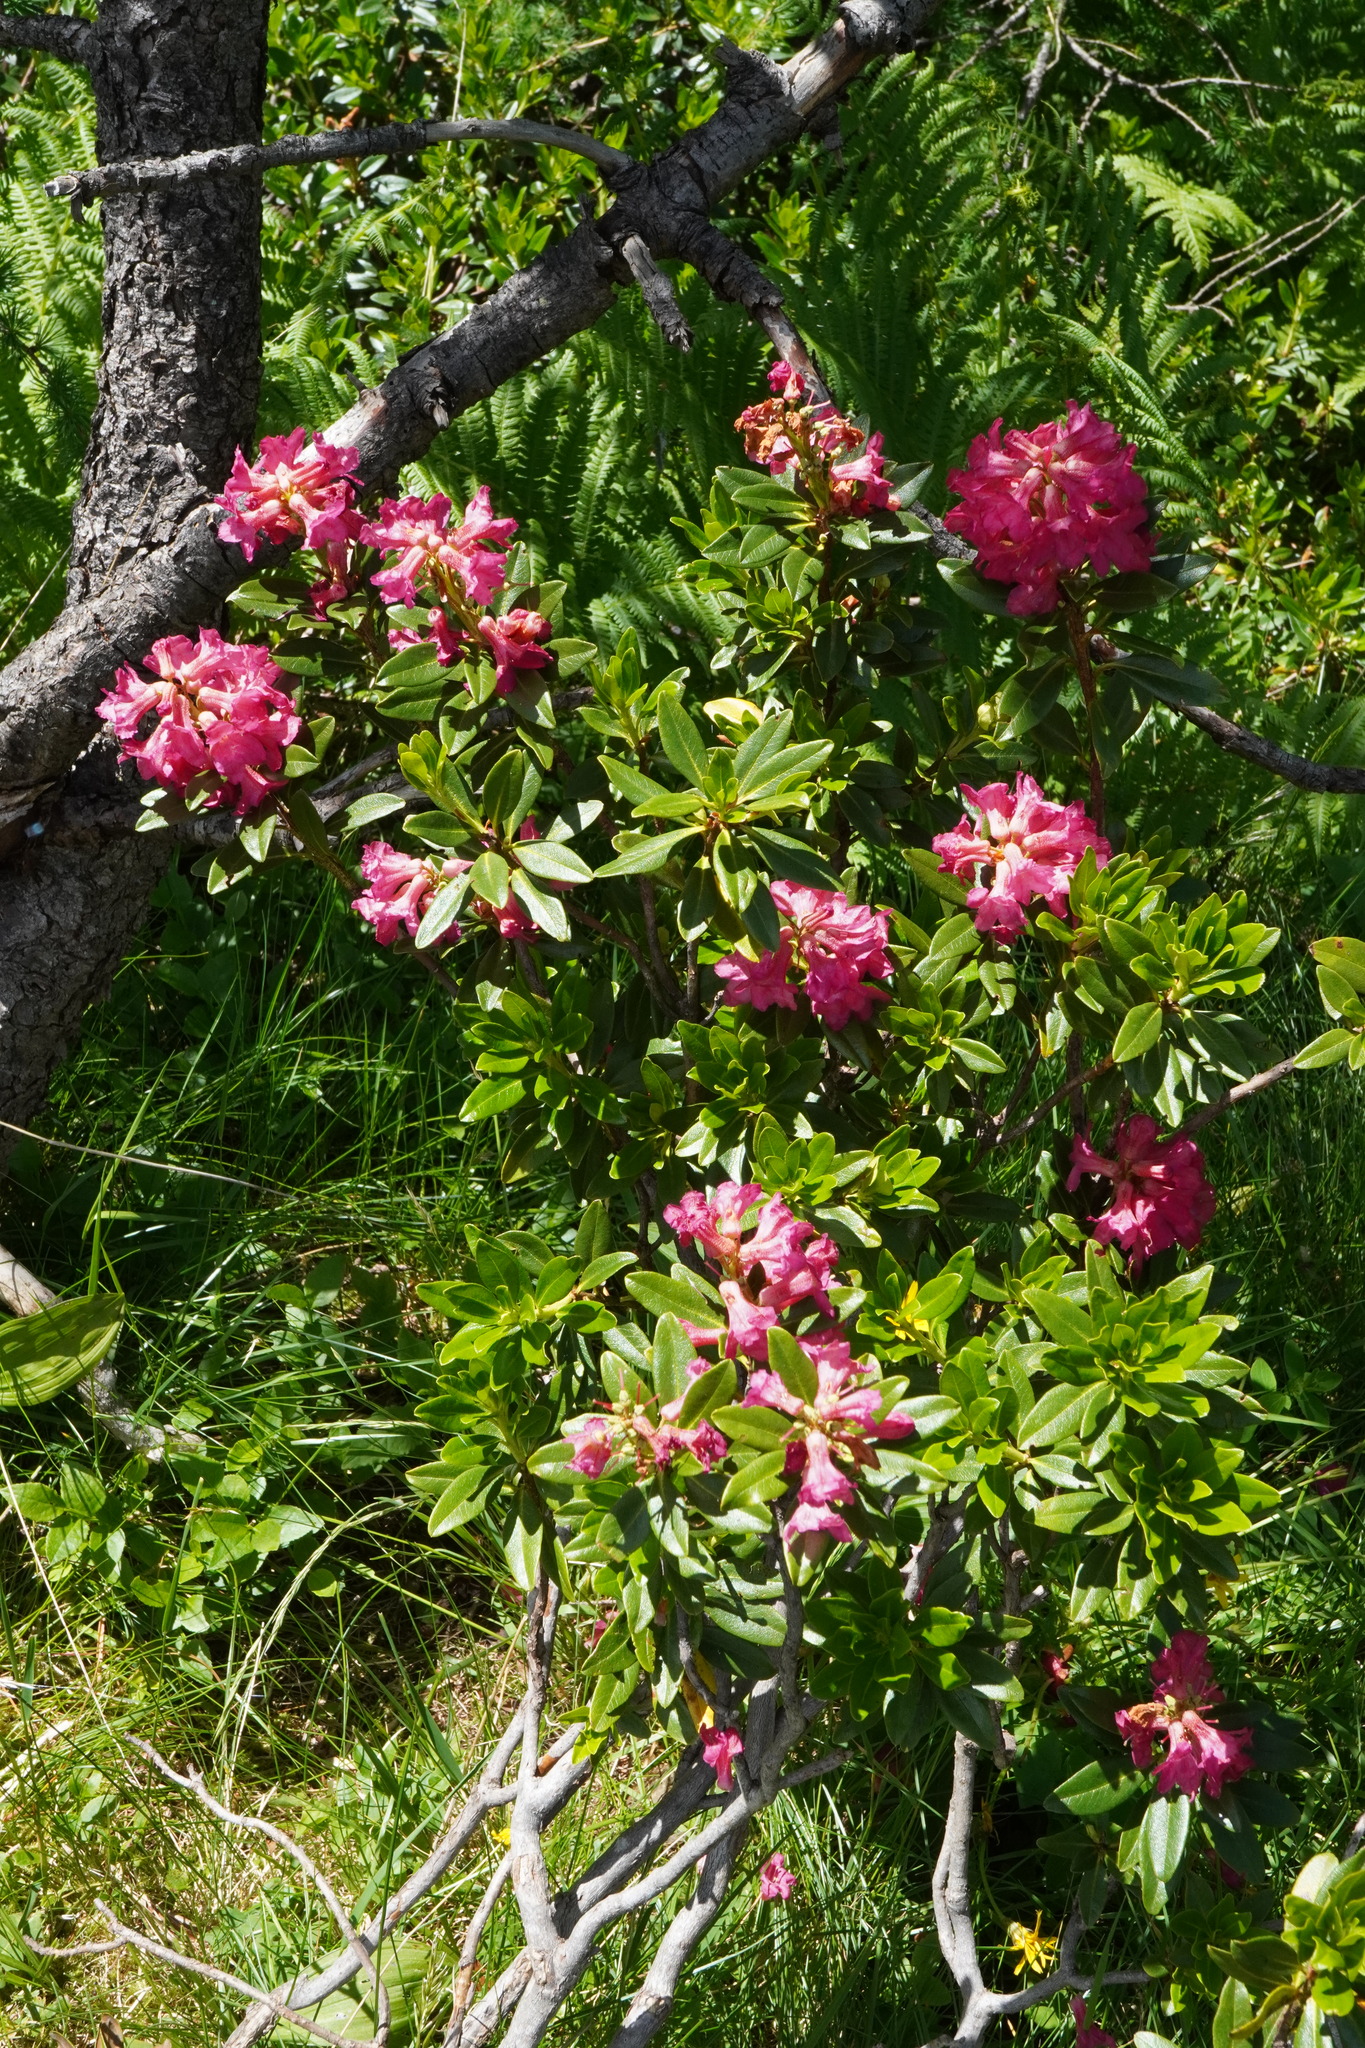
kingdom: Plantae
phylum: Tracheophyta
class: Magnoliopsida
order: Ericales
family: Ericaceae
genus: Rhododendron
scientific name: Rhododendron ferrugineum
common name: Alpenrose
